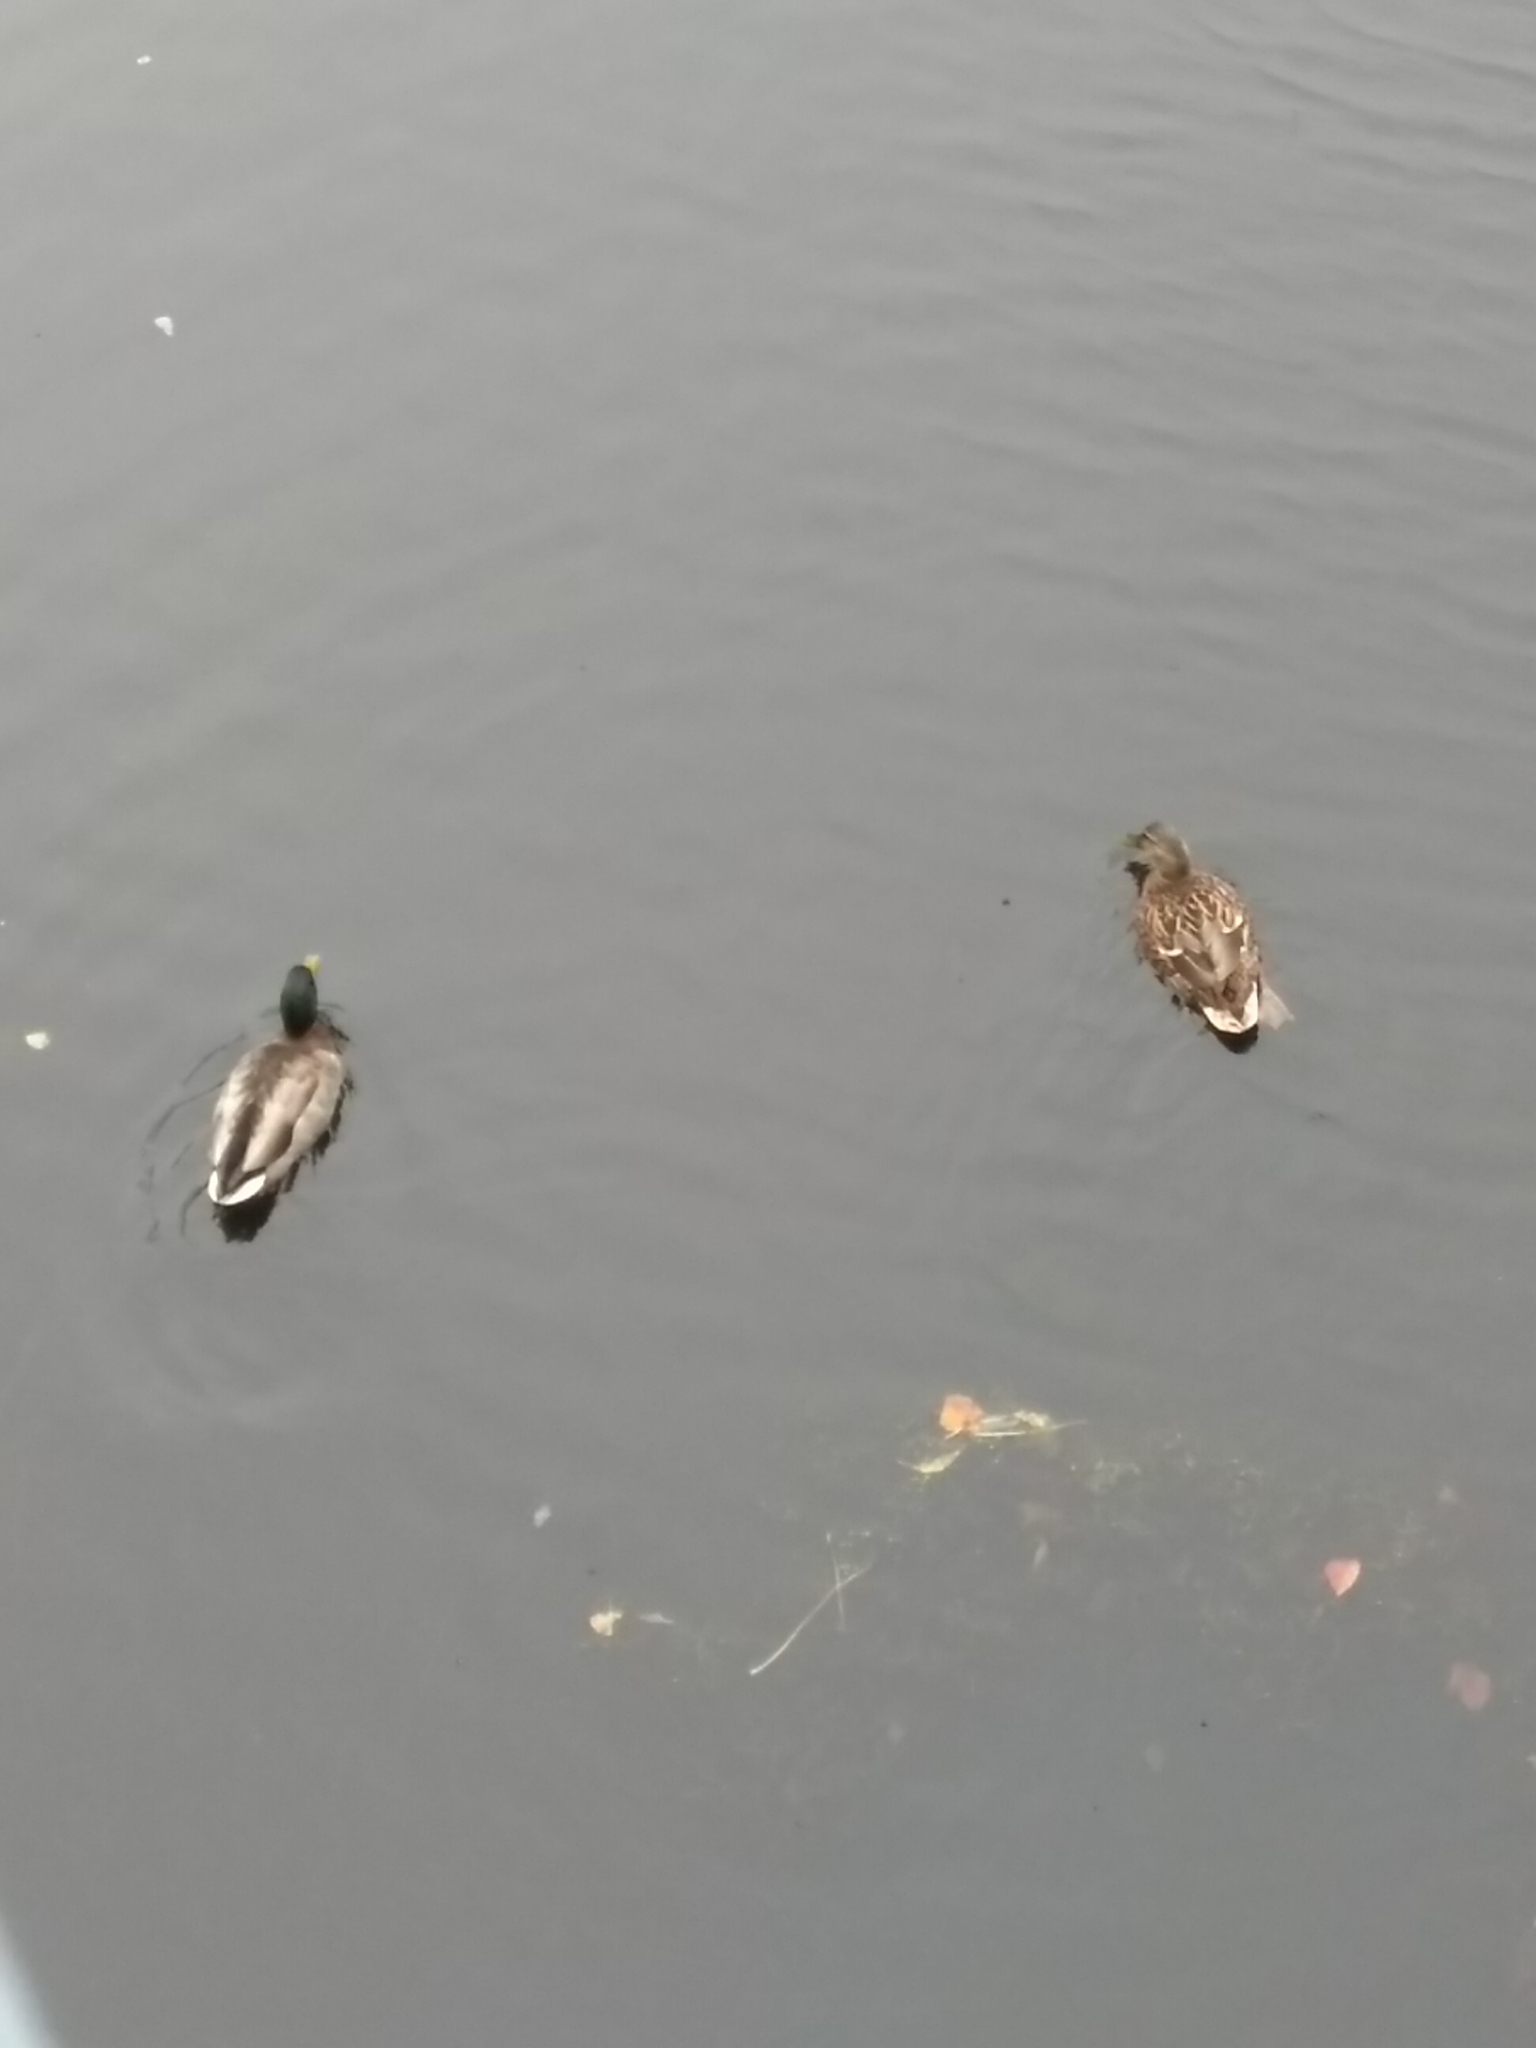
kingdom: Animalia
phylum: Chordata
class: Aves
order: Anseriformes
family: Anatidae
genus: Anas
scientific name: Anas platyrhynchos
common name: Mallard
